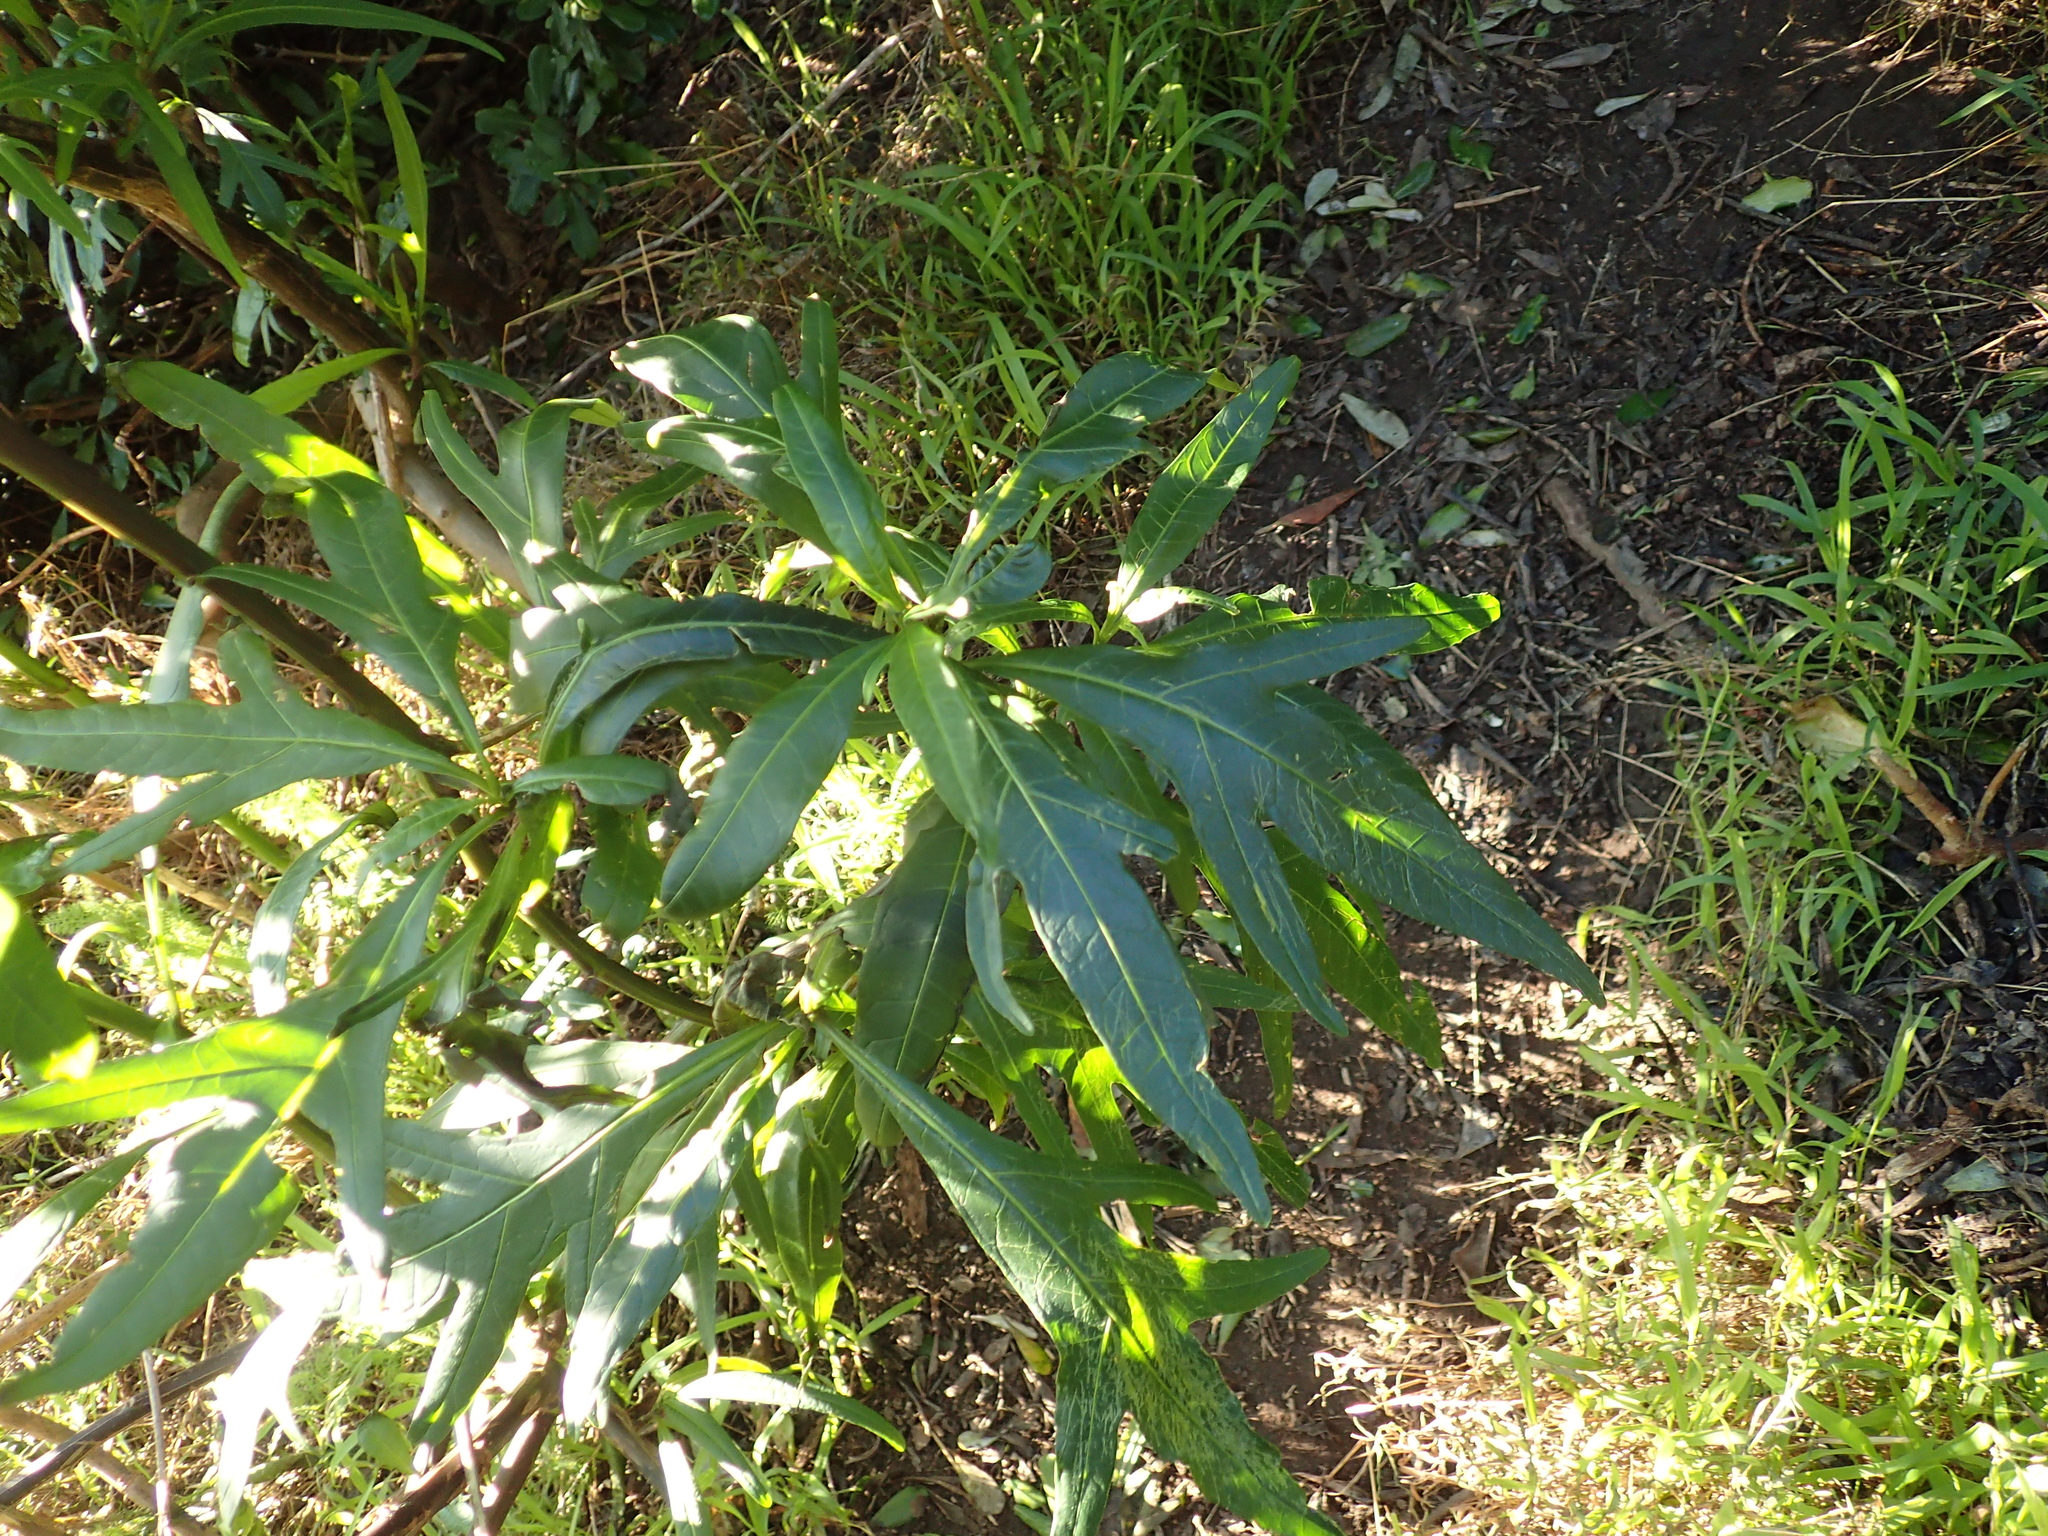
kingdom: Plantae
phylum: Tracheophyta
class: Magnoliopsida
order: Solanales
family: Solanaceae
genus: Solanum
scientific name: Solanum
